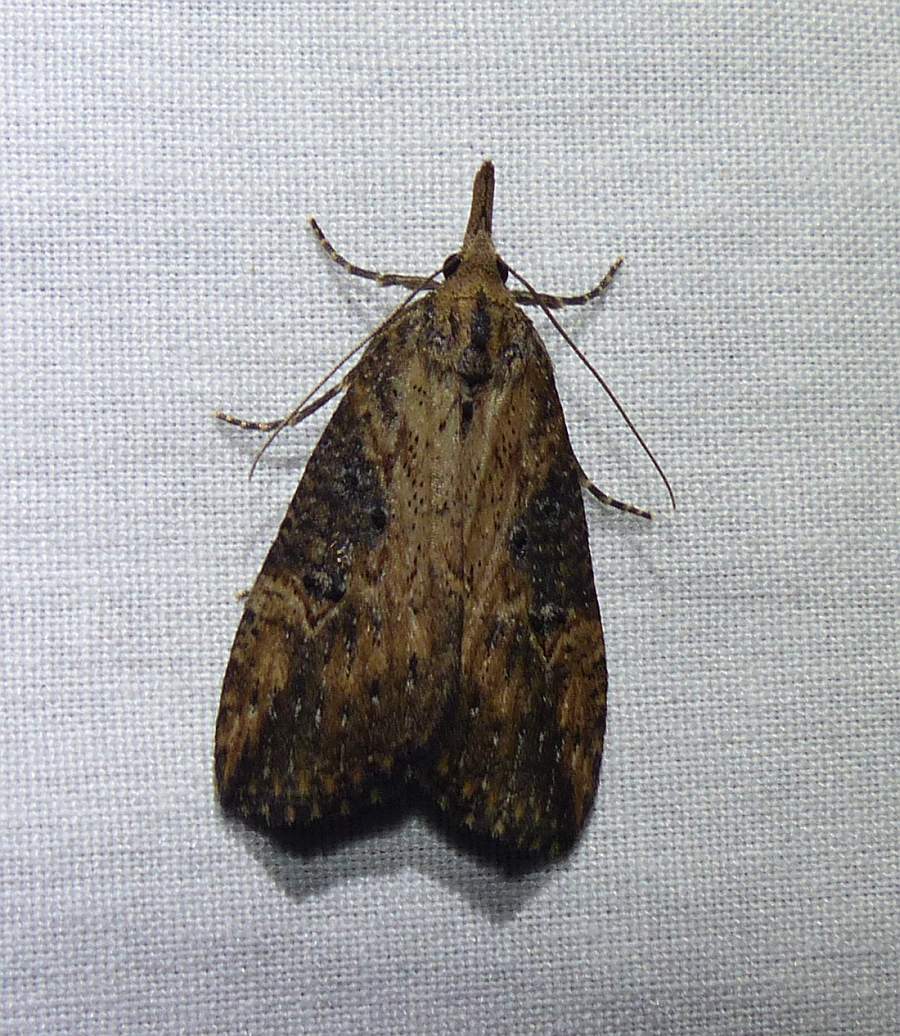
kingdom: Animalia
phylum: Arthropoda
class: Insecta
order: Lepidoptera
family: Erebidae
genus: Hypena
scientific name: Hypena humuli
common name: Hop vine snout
